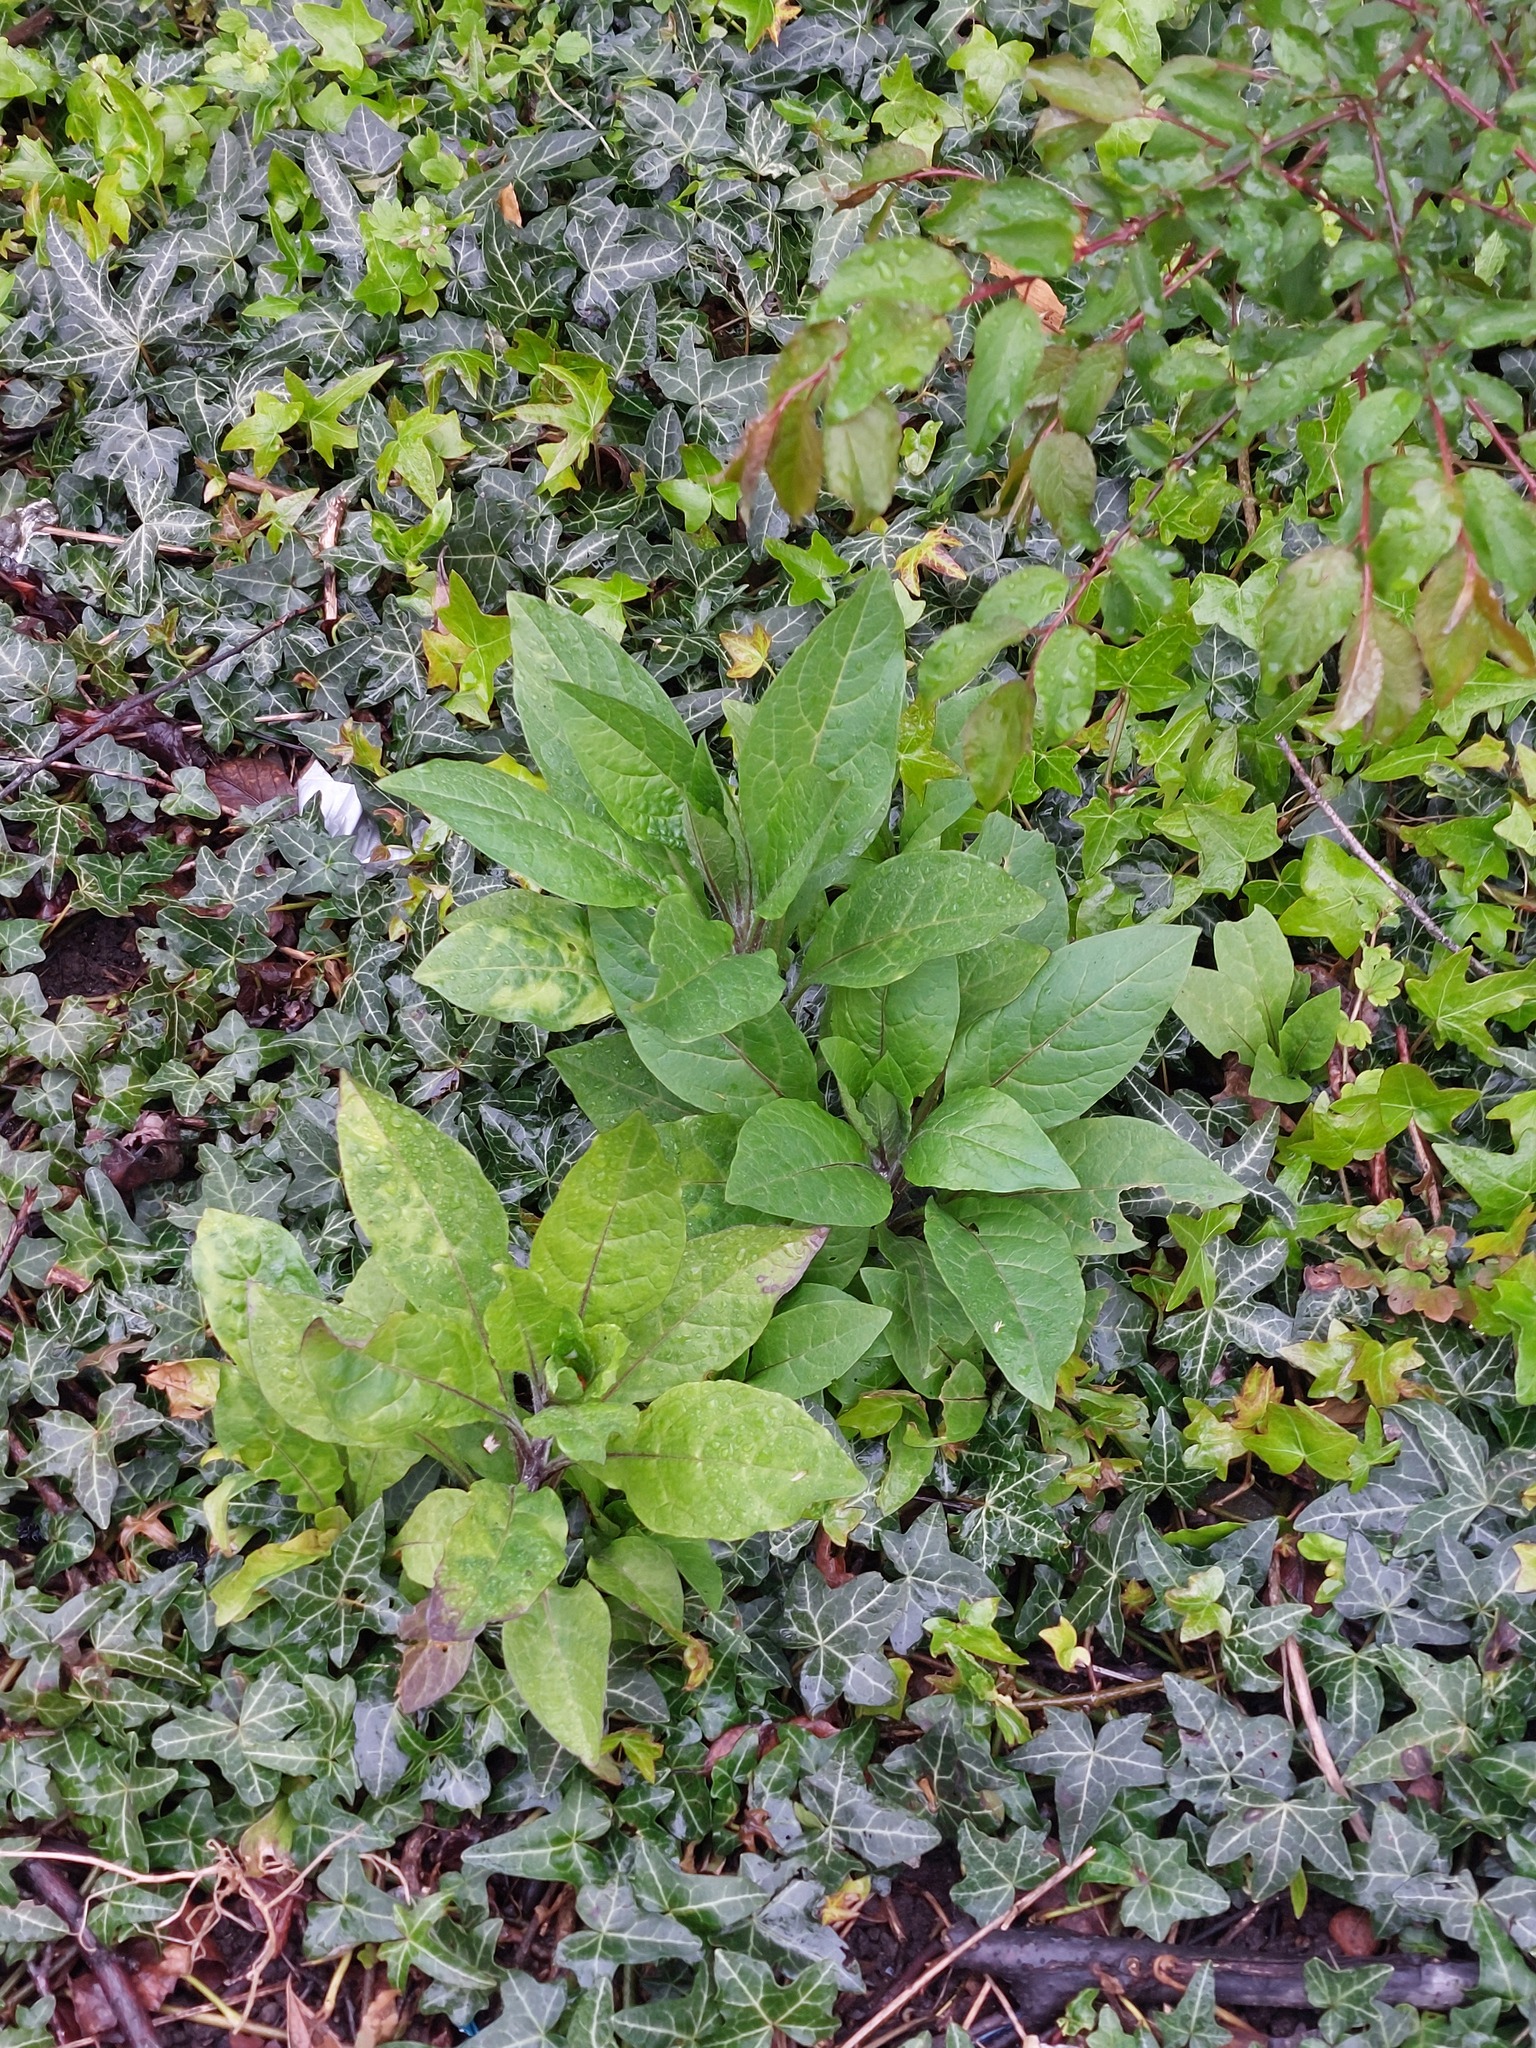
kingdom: Plantae
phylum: Tracheophyta
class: Magnoliopsida
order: Solanales
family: Solanaceae
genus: Atropa
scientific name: Atropa belladonna
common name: Deadly nightshade
